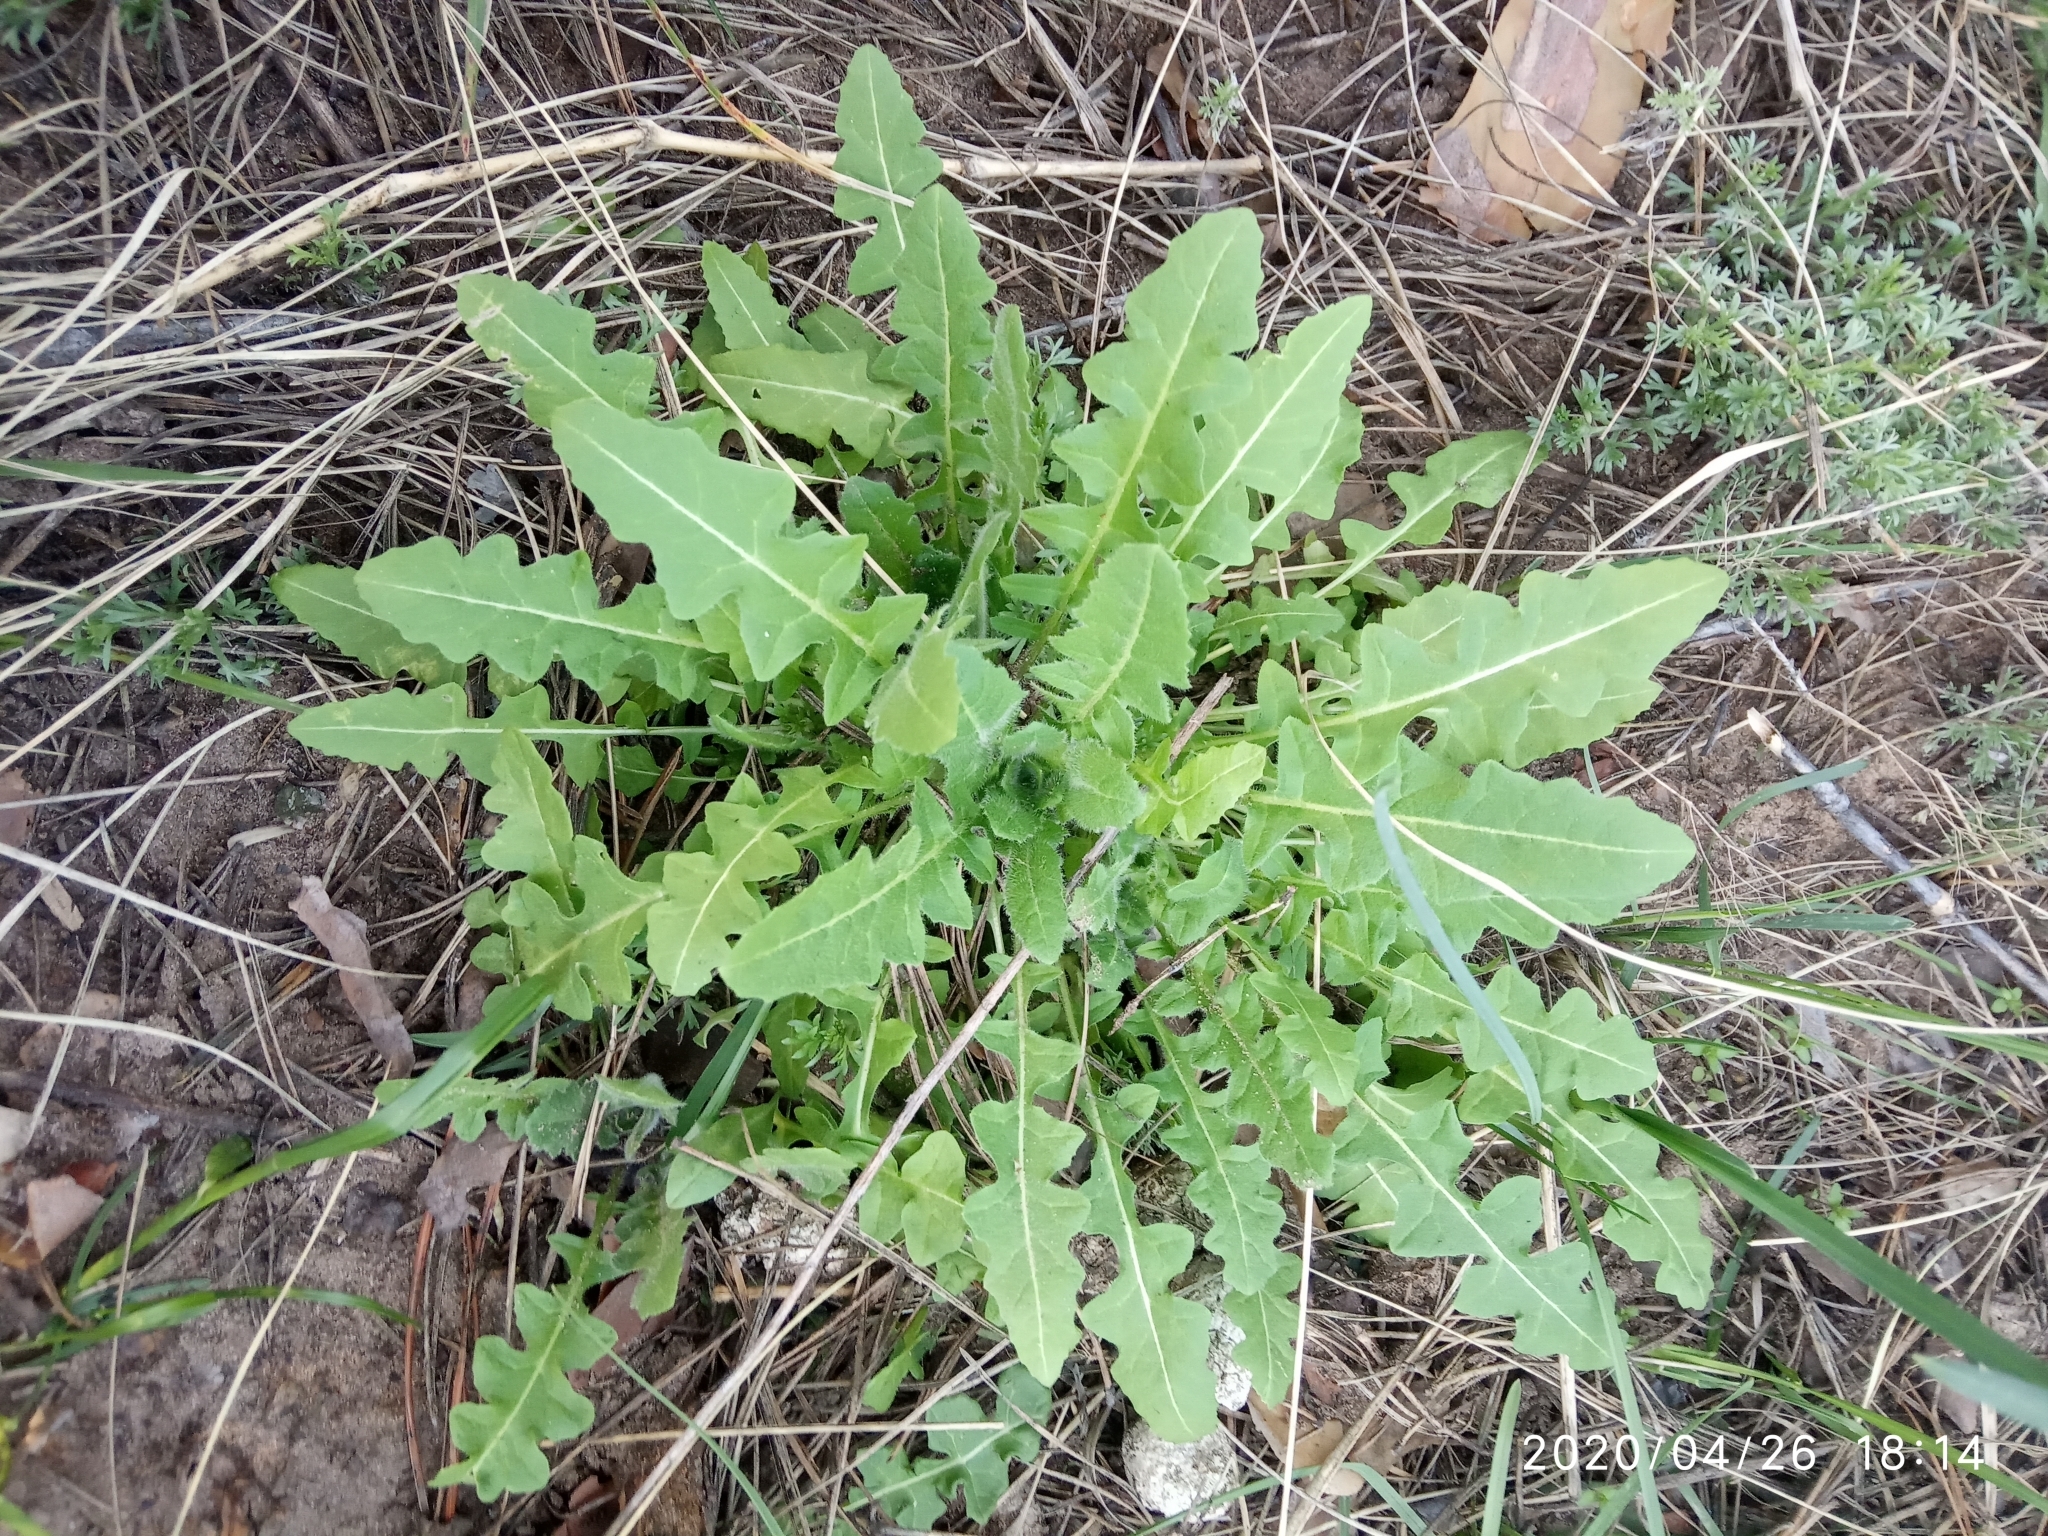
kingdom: Plantae
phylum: Tracheophyta
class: Magnoliopsida
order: Brassicales
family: Brassicaceae
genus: Sisymbrium
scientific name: Sisymbrium loeselii
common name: False london-rocket
